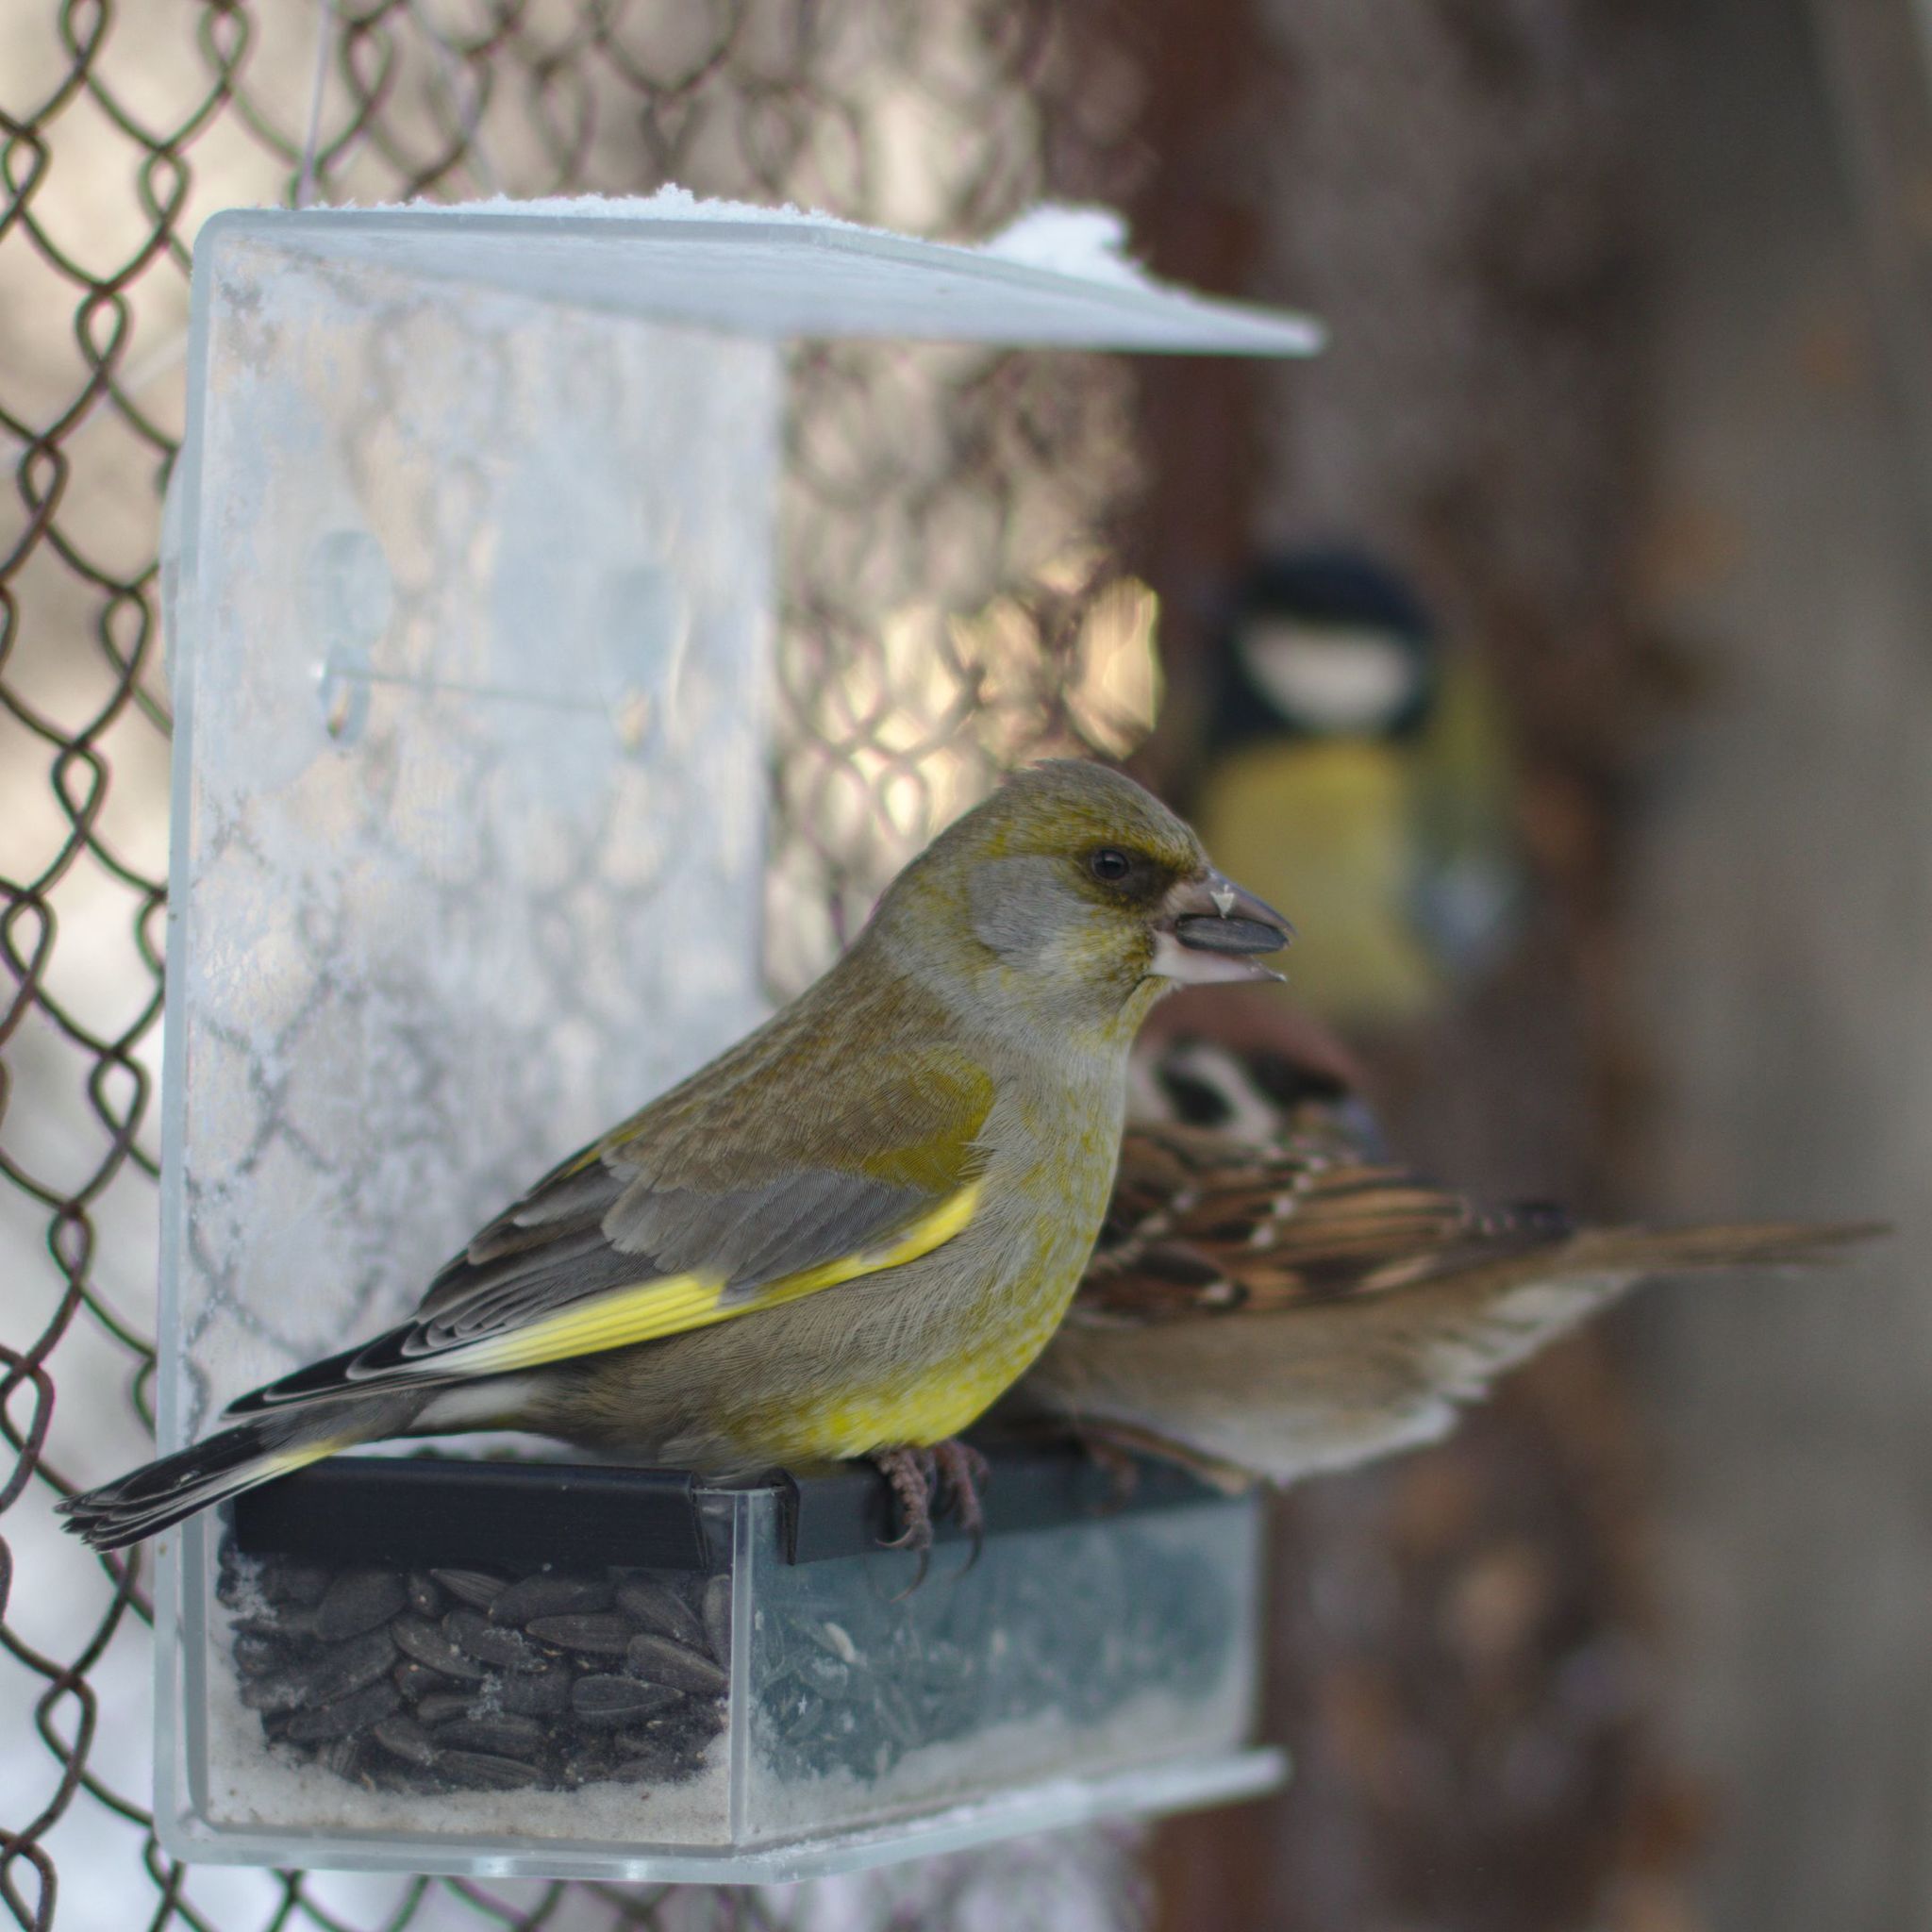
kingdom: Plantae
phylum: Tracheophyta
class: Liliopsida
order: Poales
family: Poaceae
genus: Chloris
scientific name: Chloris chloris
